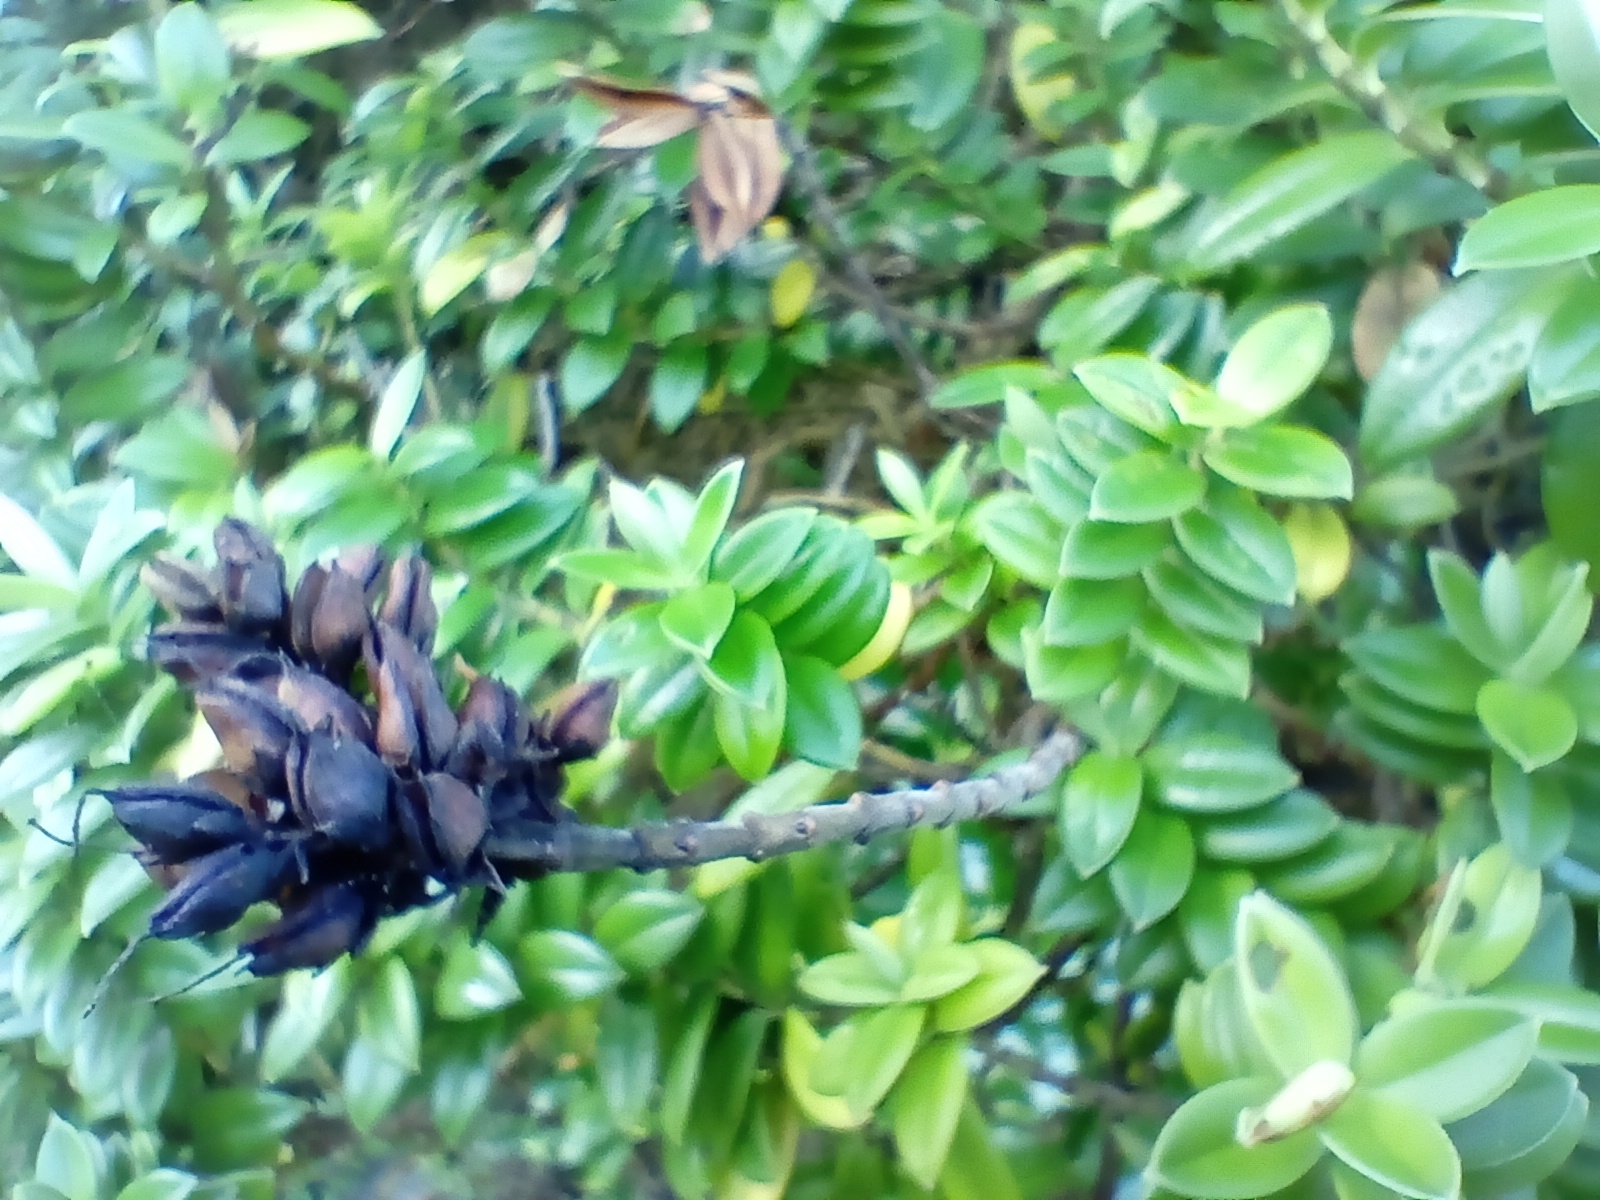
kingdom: Plantae
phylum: Tracheophyta
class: Magnoliopsida
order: Lamiales
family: Plantaginaceae
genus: Veronica
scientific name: Veronica elliptica
